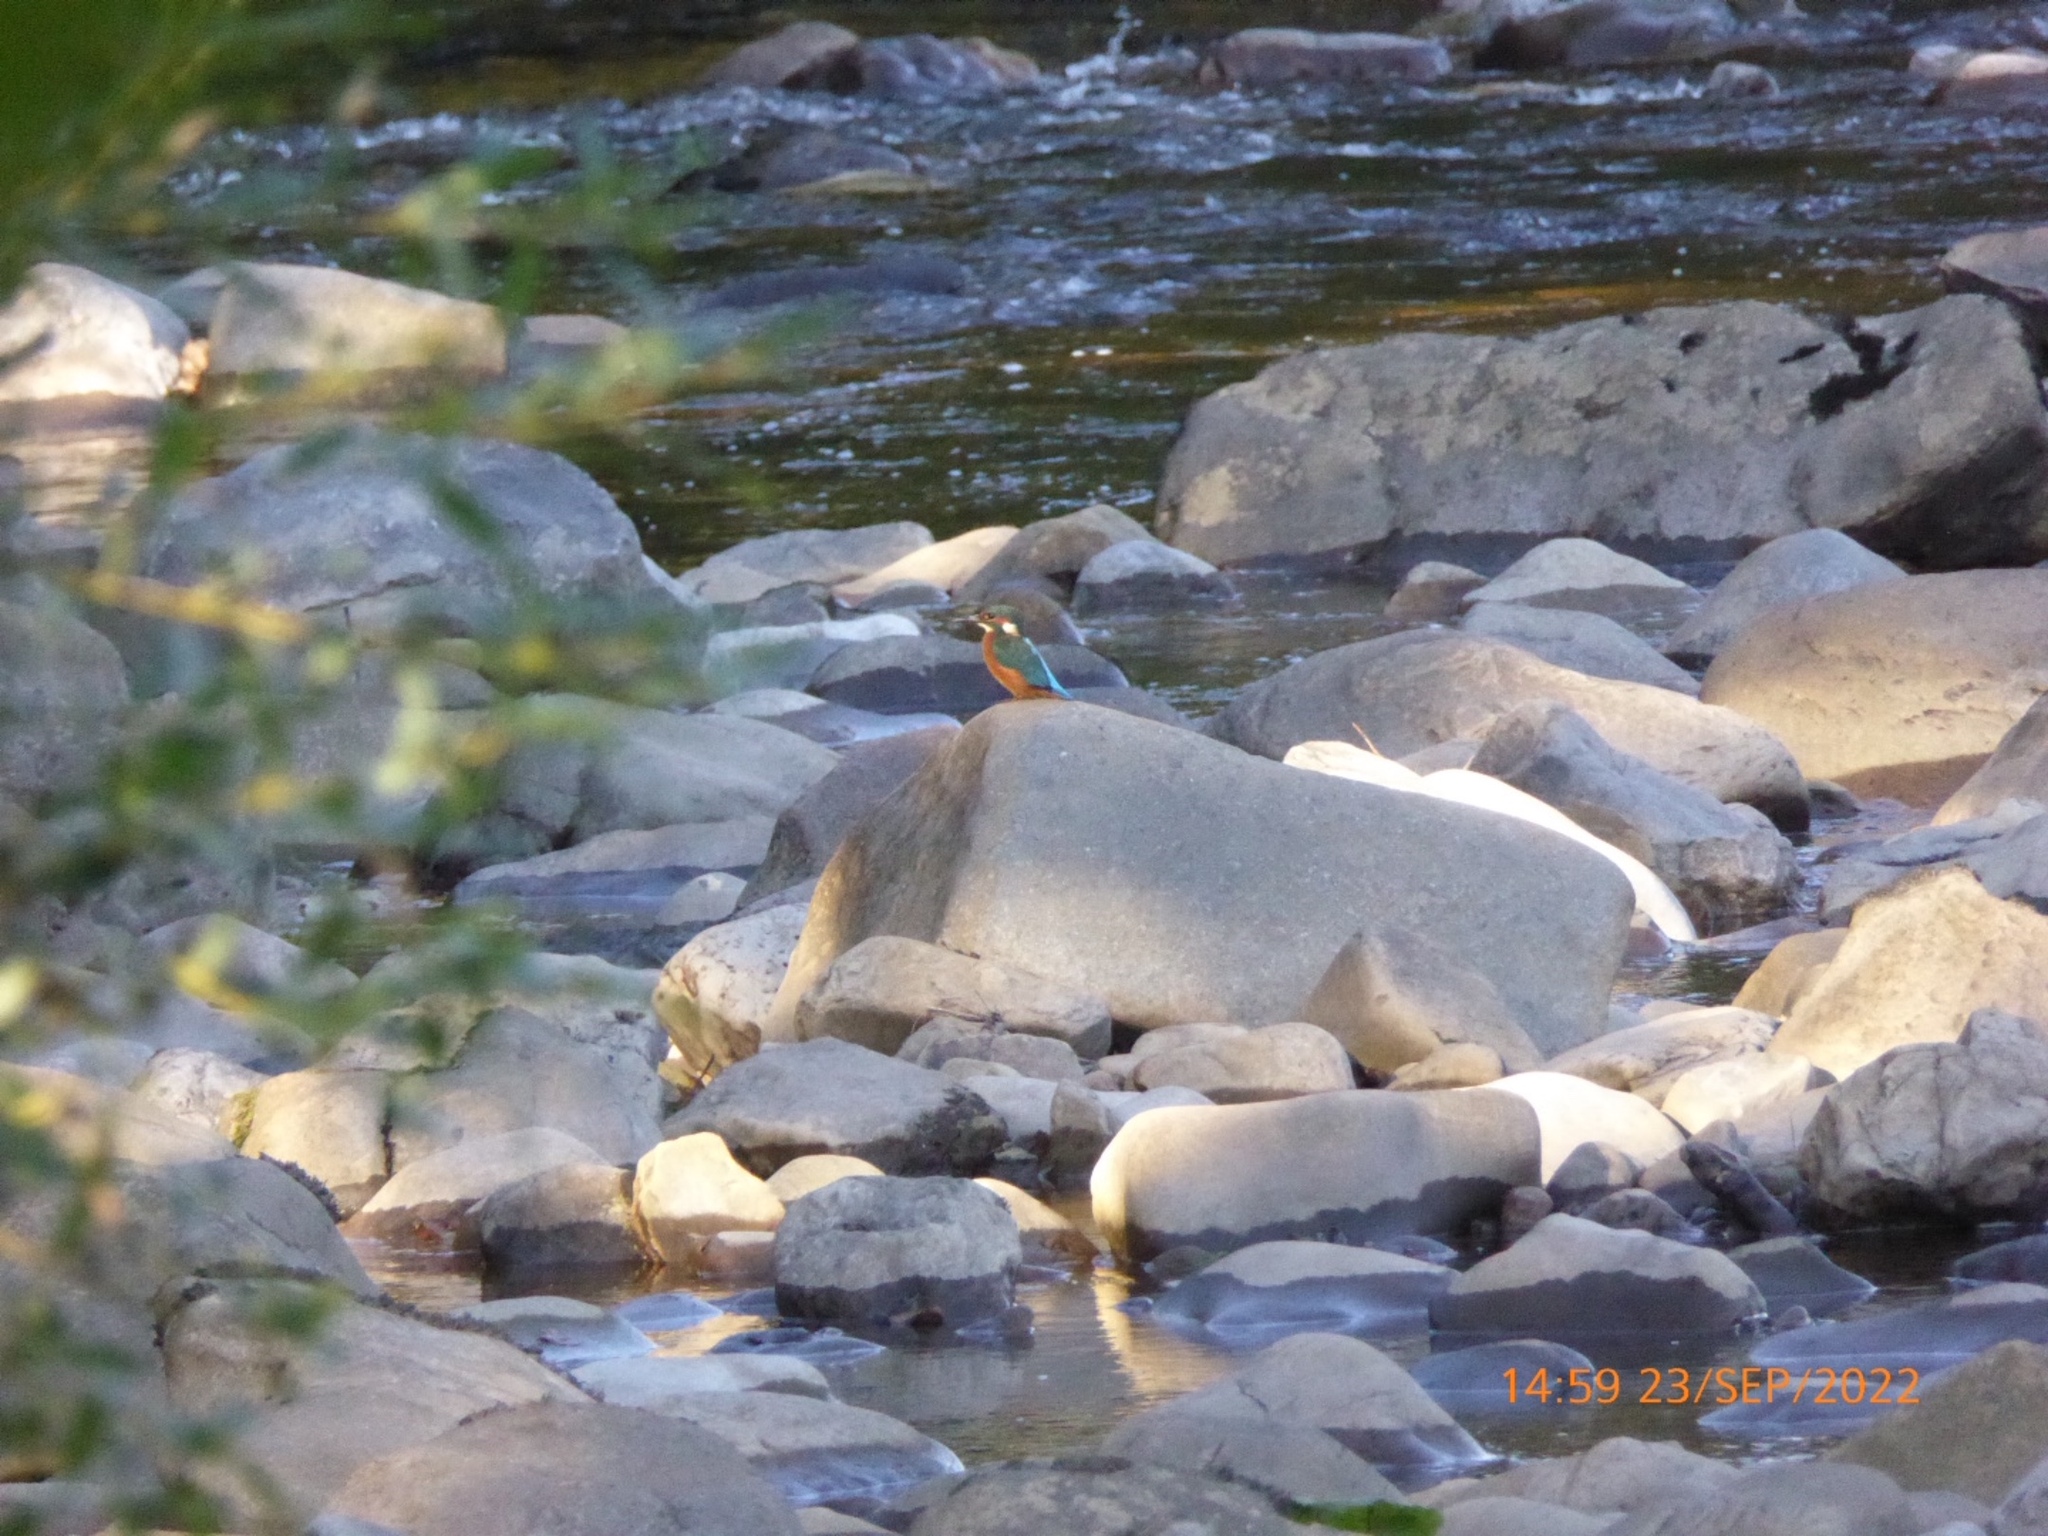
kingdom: Animalia
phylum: Chordata
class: Aves
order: Coraciiformes
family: Alcedinidae
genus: Alcedo
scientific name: Alcedo atthis
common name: Common kingfisher
